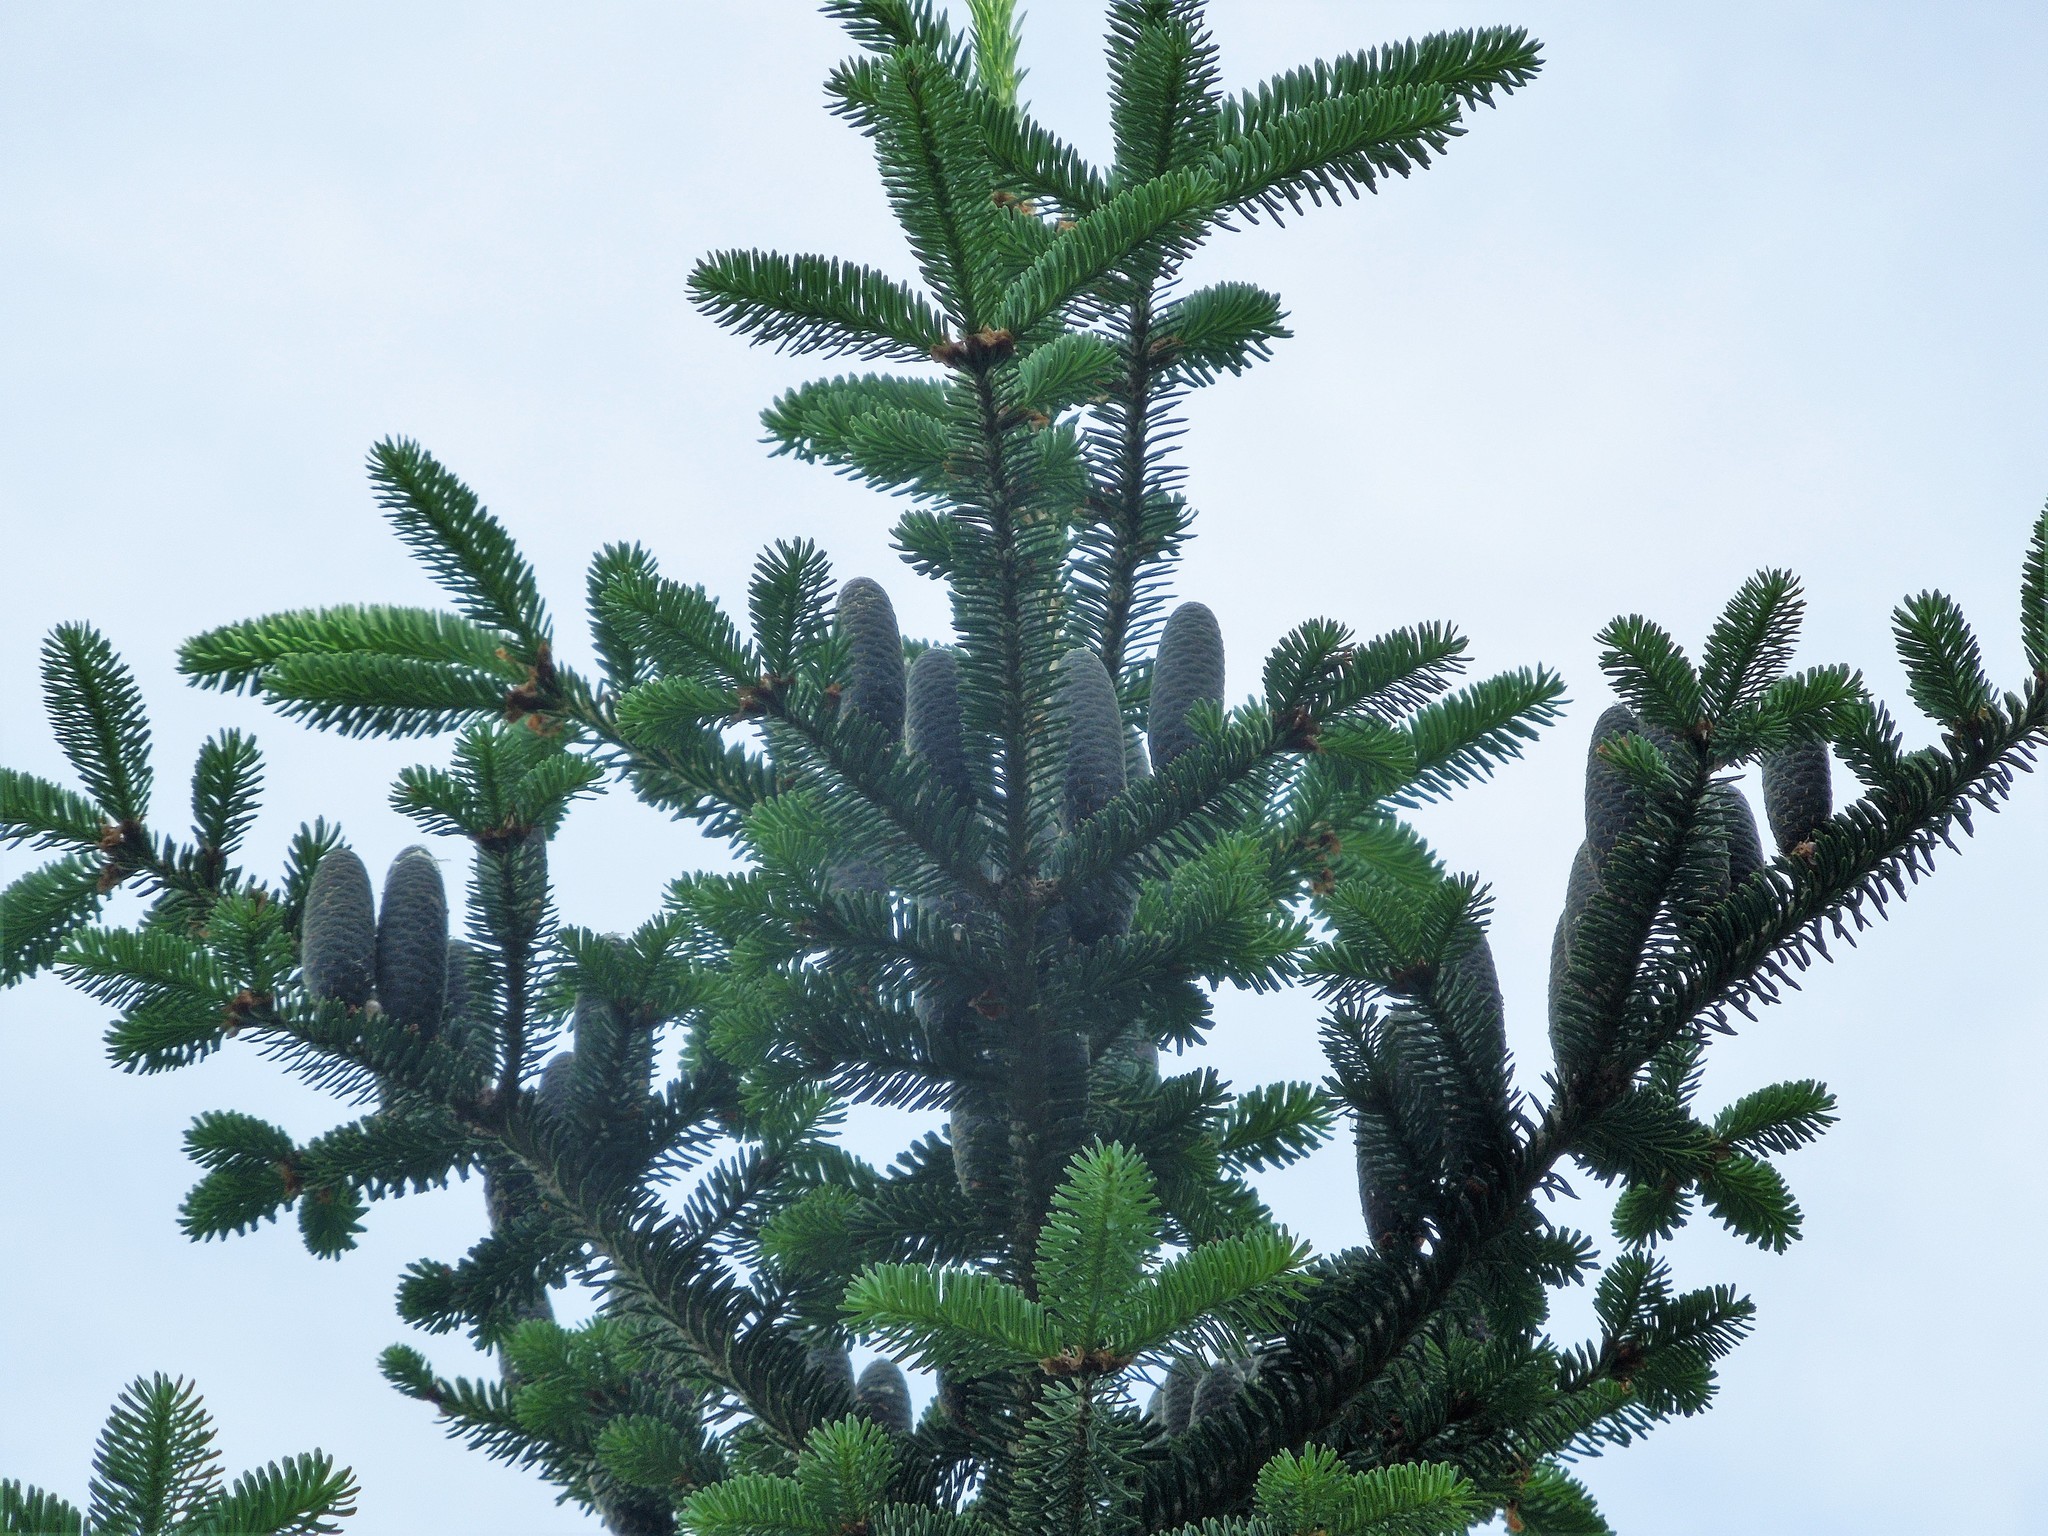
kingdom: Plantae
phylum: Tracheophyta
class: Pinopsida
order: Pinales
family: Pinaceae
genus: Abies
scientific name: Abies balsamea
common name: Balsam fir
